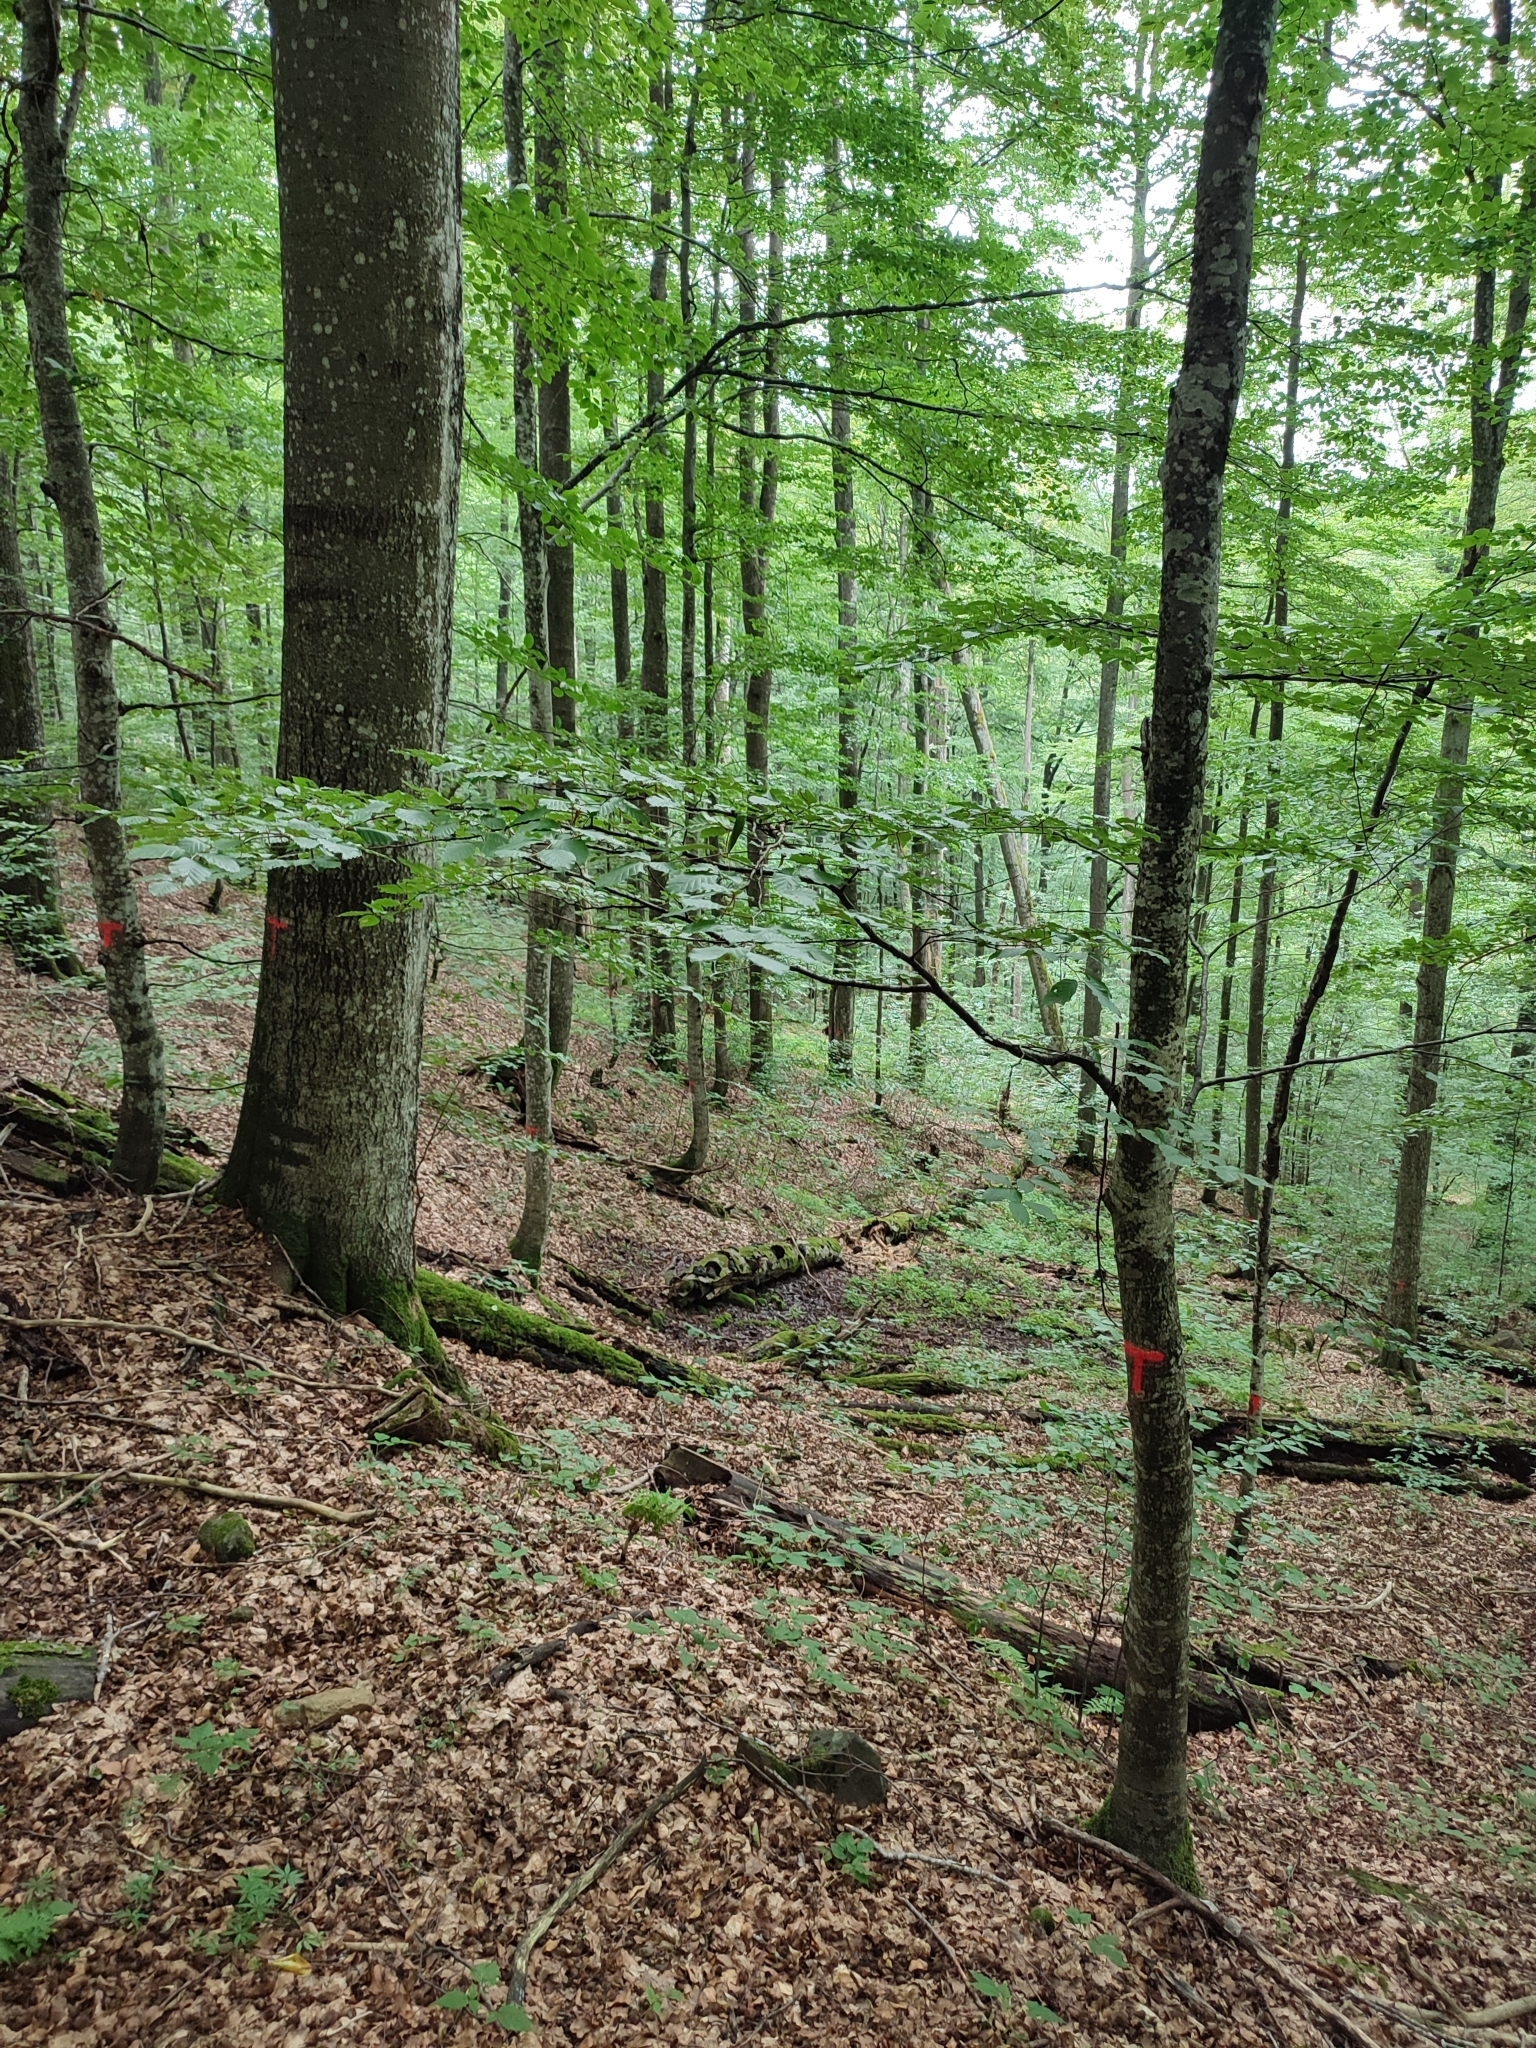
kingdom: Plantae
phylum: Tracheophyta
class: Magnoliopsida
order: Fagales
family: Fagaceae
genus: Fagus
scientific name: Fagus sylvatica
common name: Beech
